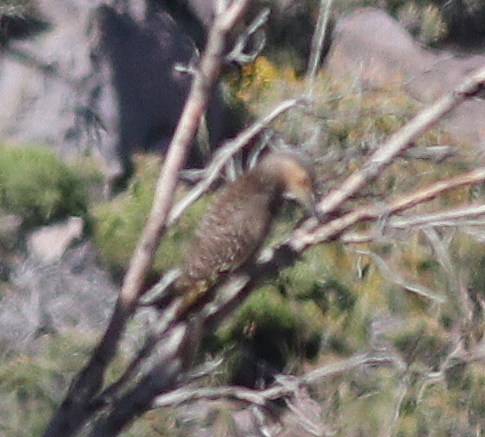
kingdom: Animalia
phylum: Chordata
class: Aves
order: Piciformes
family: Picidae
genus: Colaptes
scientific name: Colaptes pitius
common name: Chilean flicker
